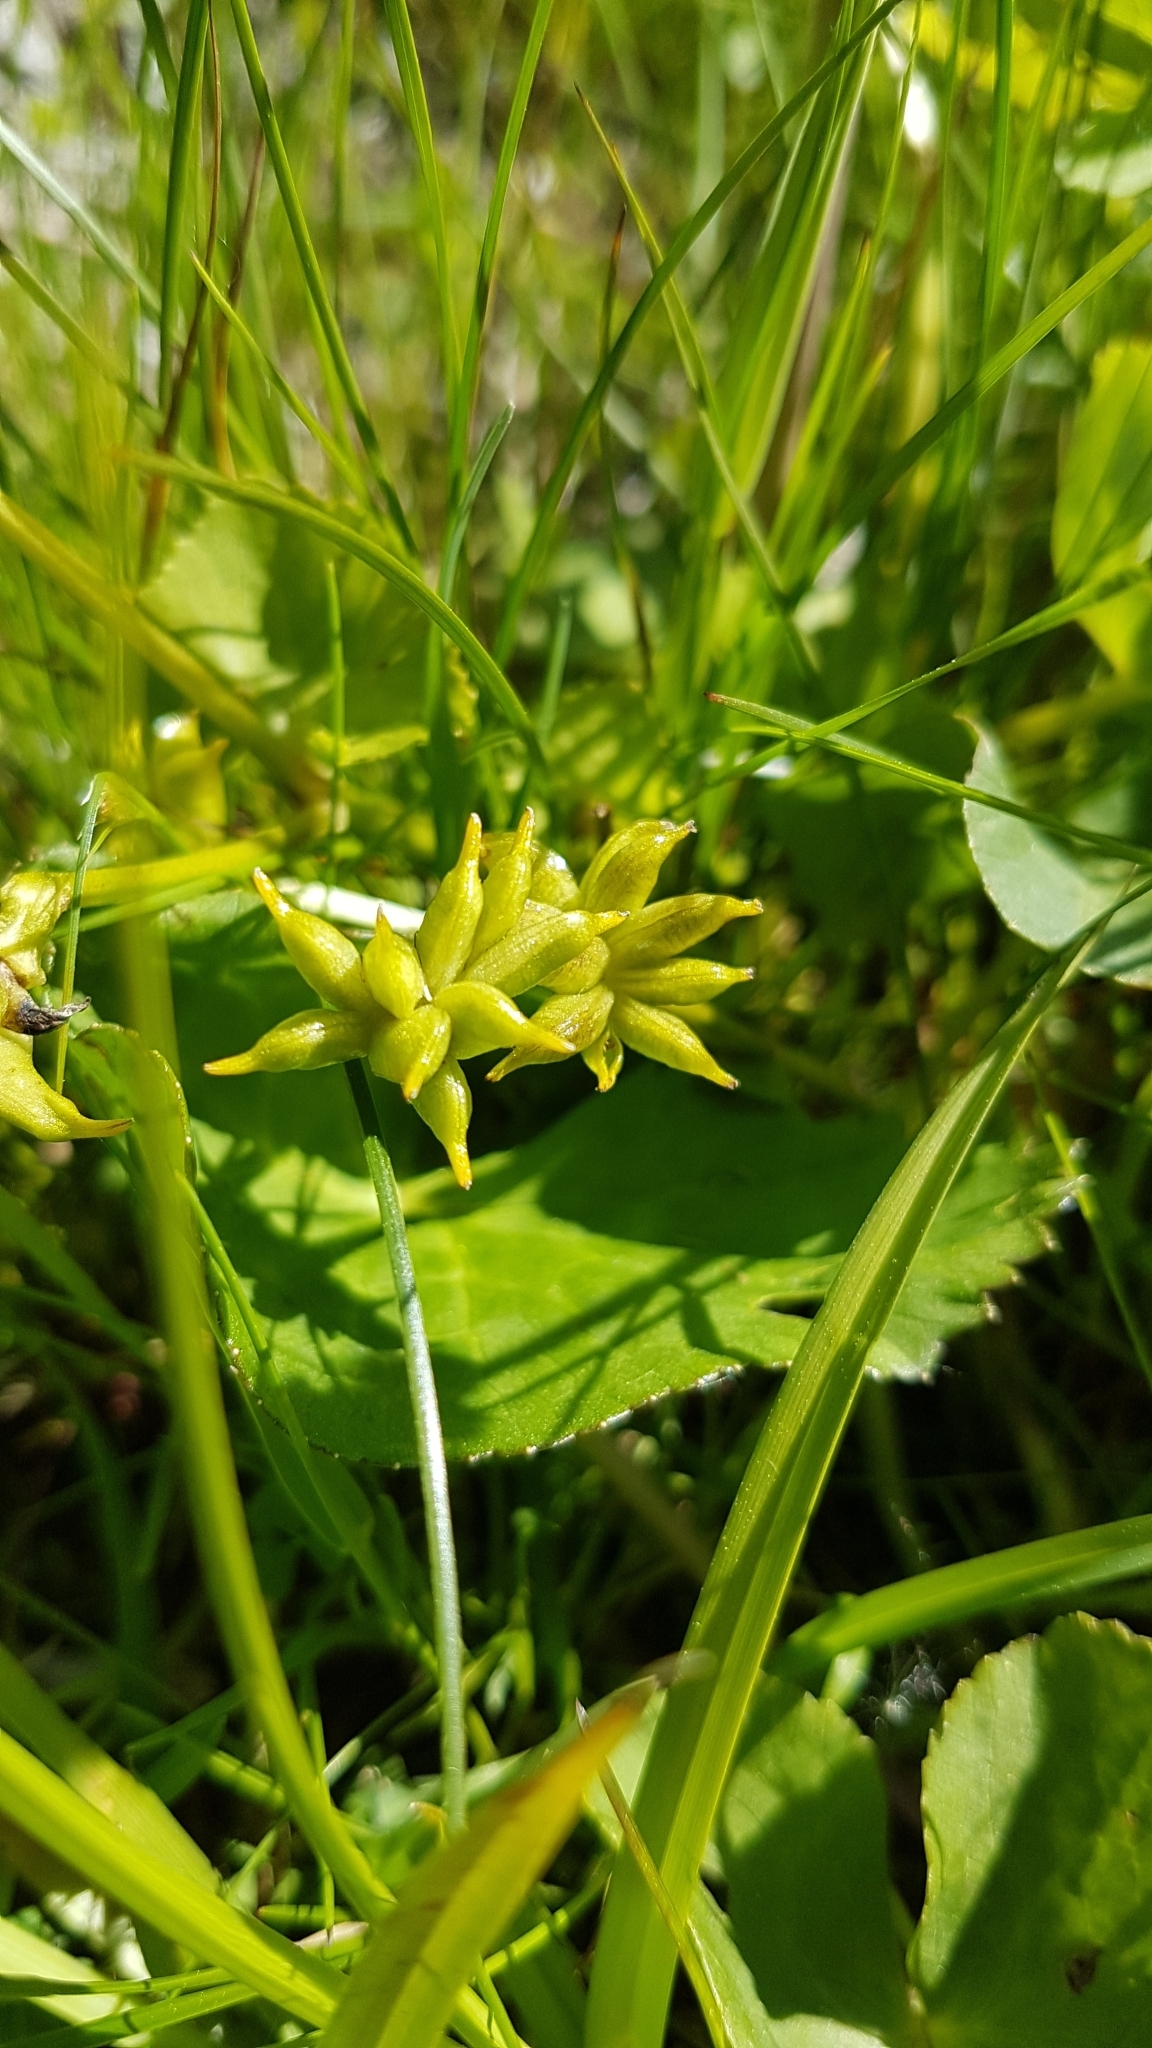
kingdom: Plantae
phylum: Tracheophyta
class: Magnoliopsida
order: Ranunculales
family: Ranunculaceae
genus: Caltha
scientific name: Caltha palustris
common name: Marsh marigold
